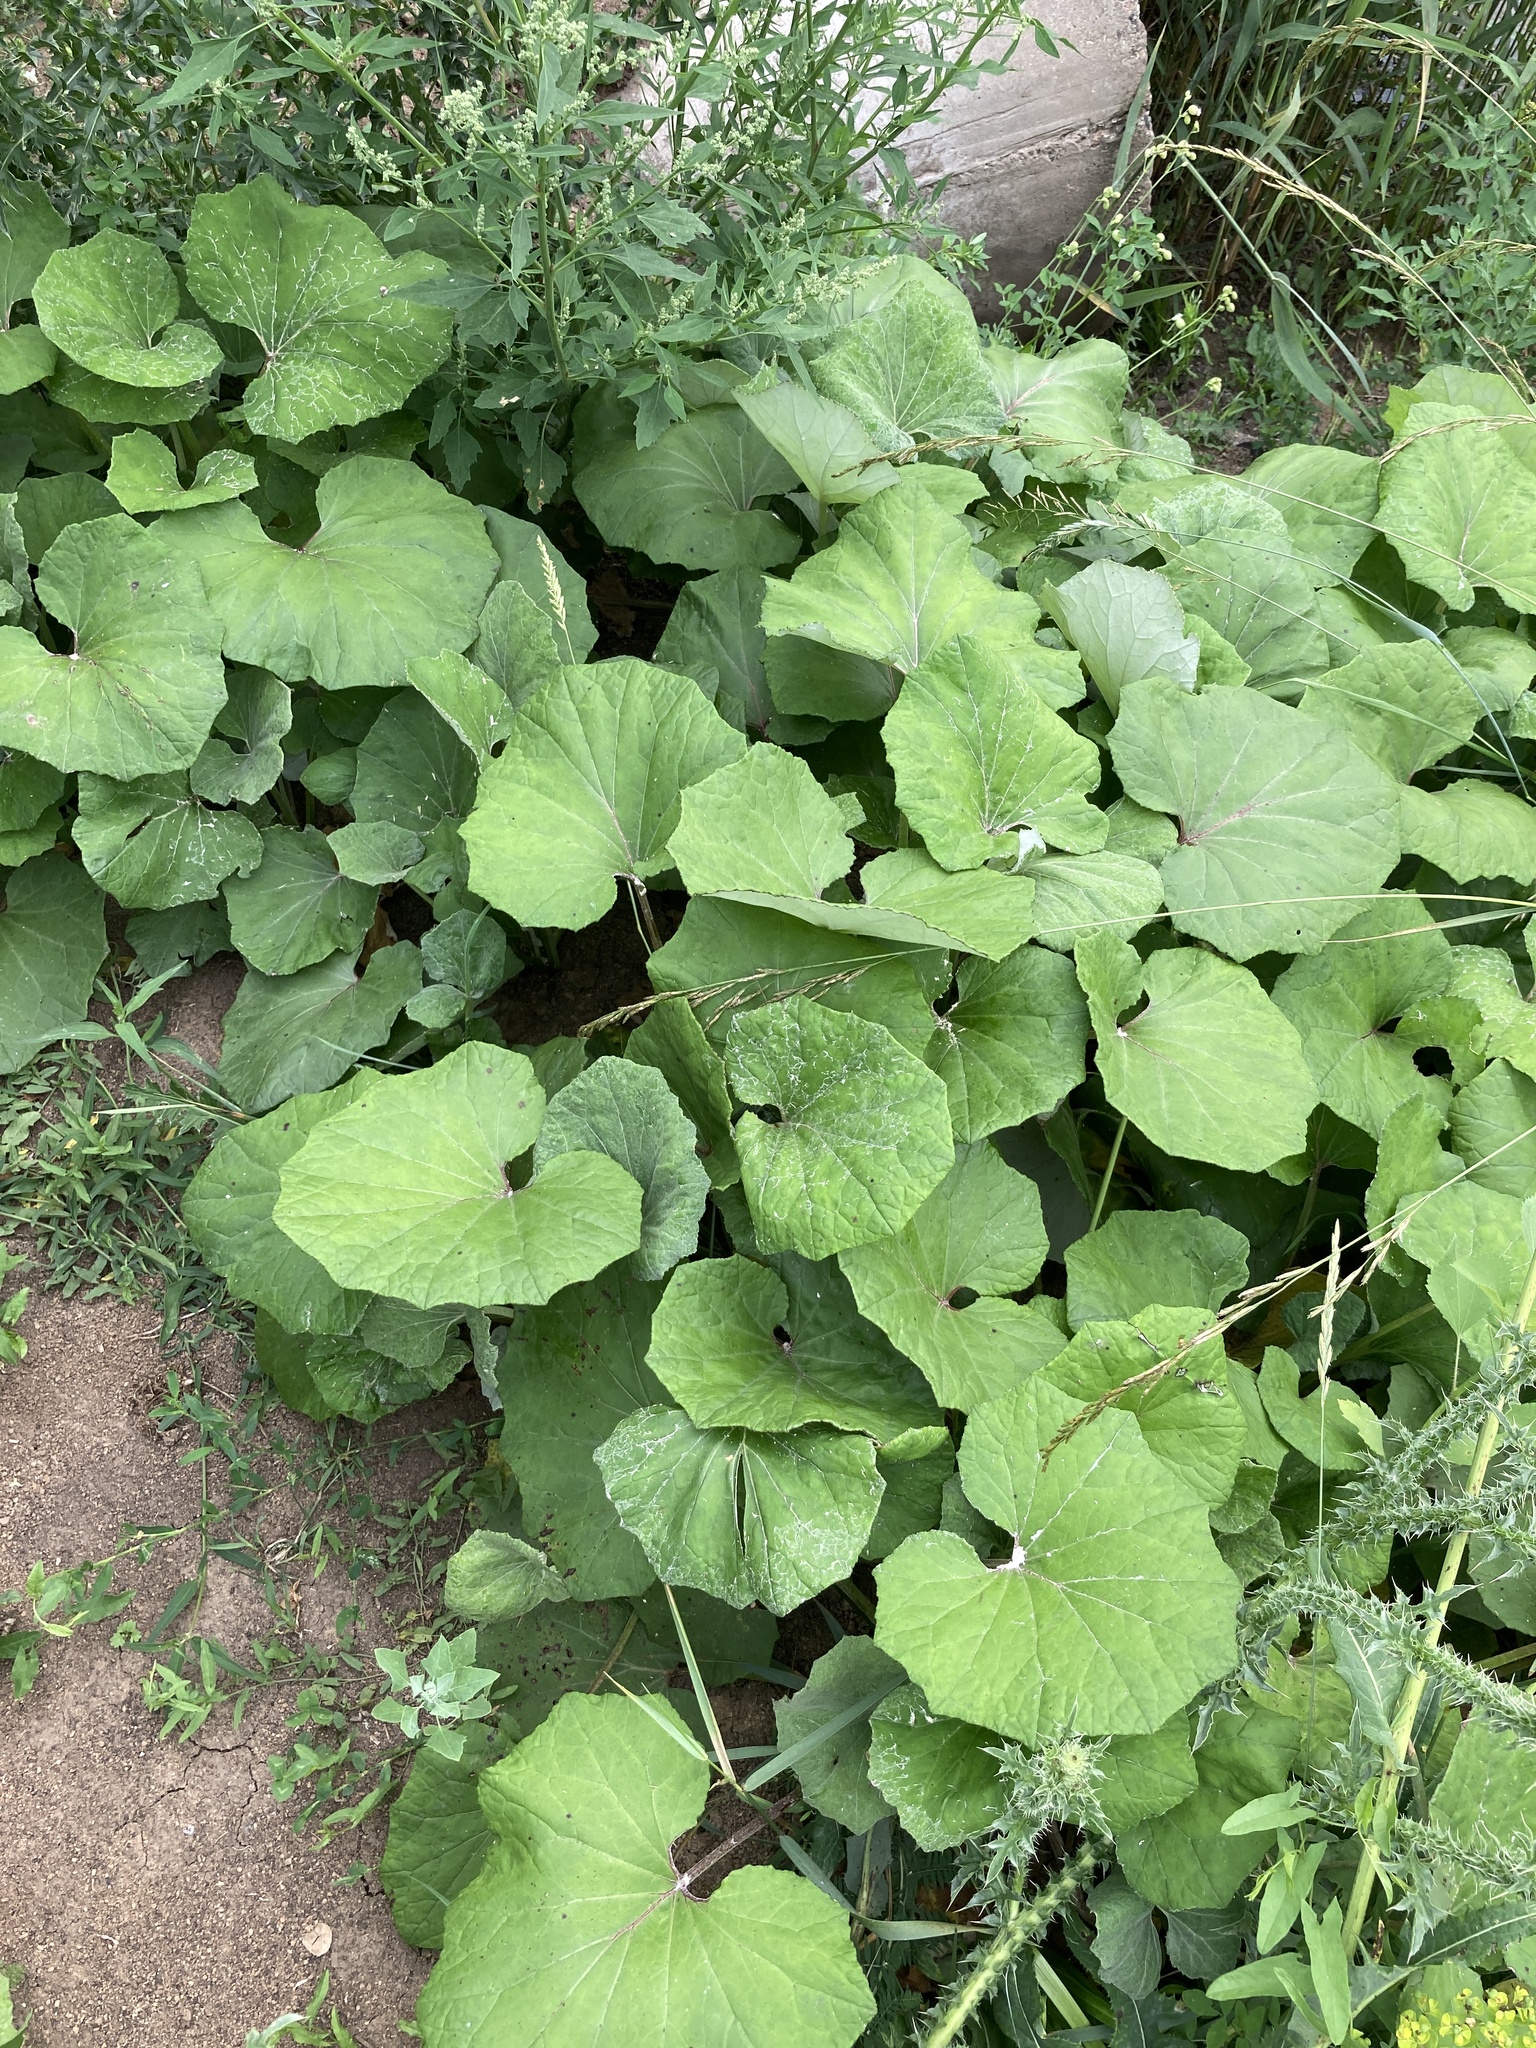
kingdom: Plantae
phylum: Tracheophyta
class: Magnoliopsida
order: Asterales
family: Asteraceae
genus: Tussilago
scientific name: Tussilago farfara
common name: Coltsfoot
